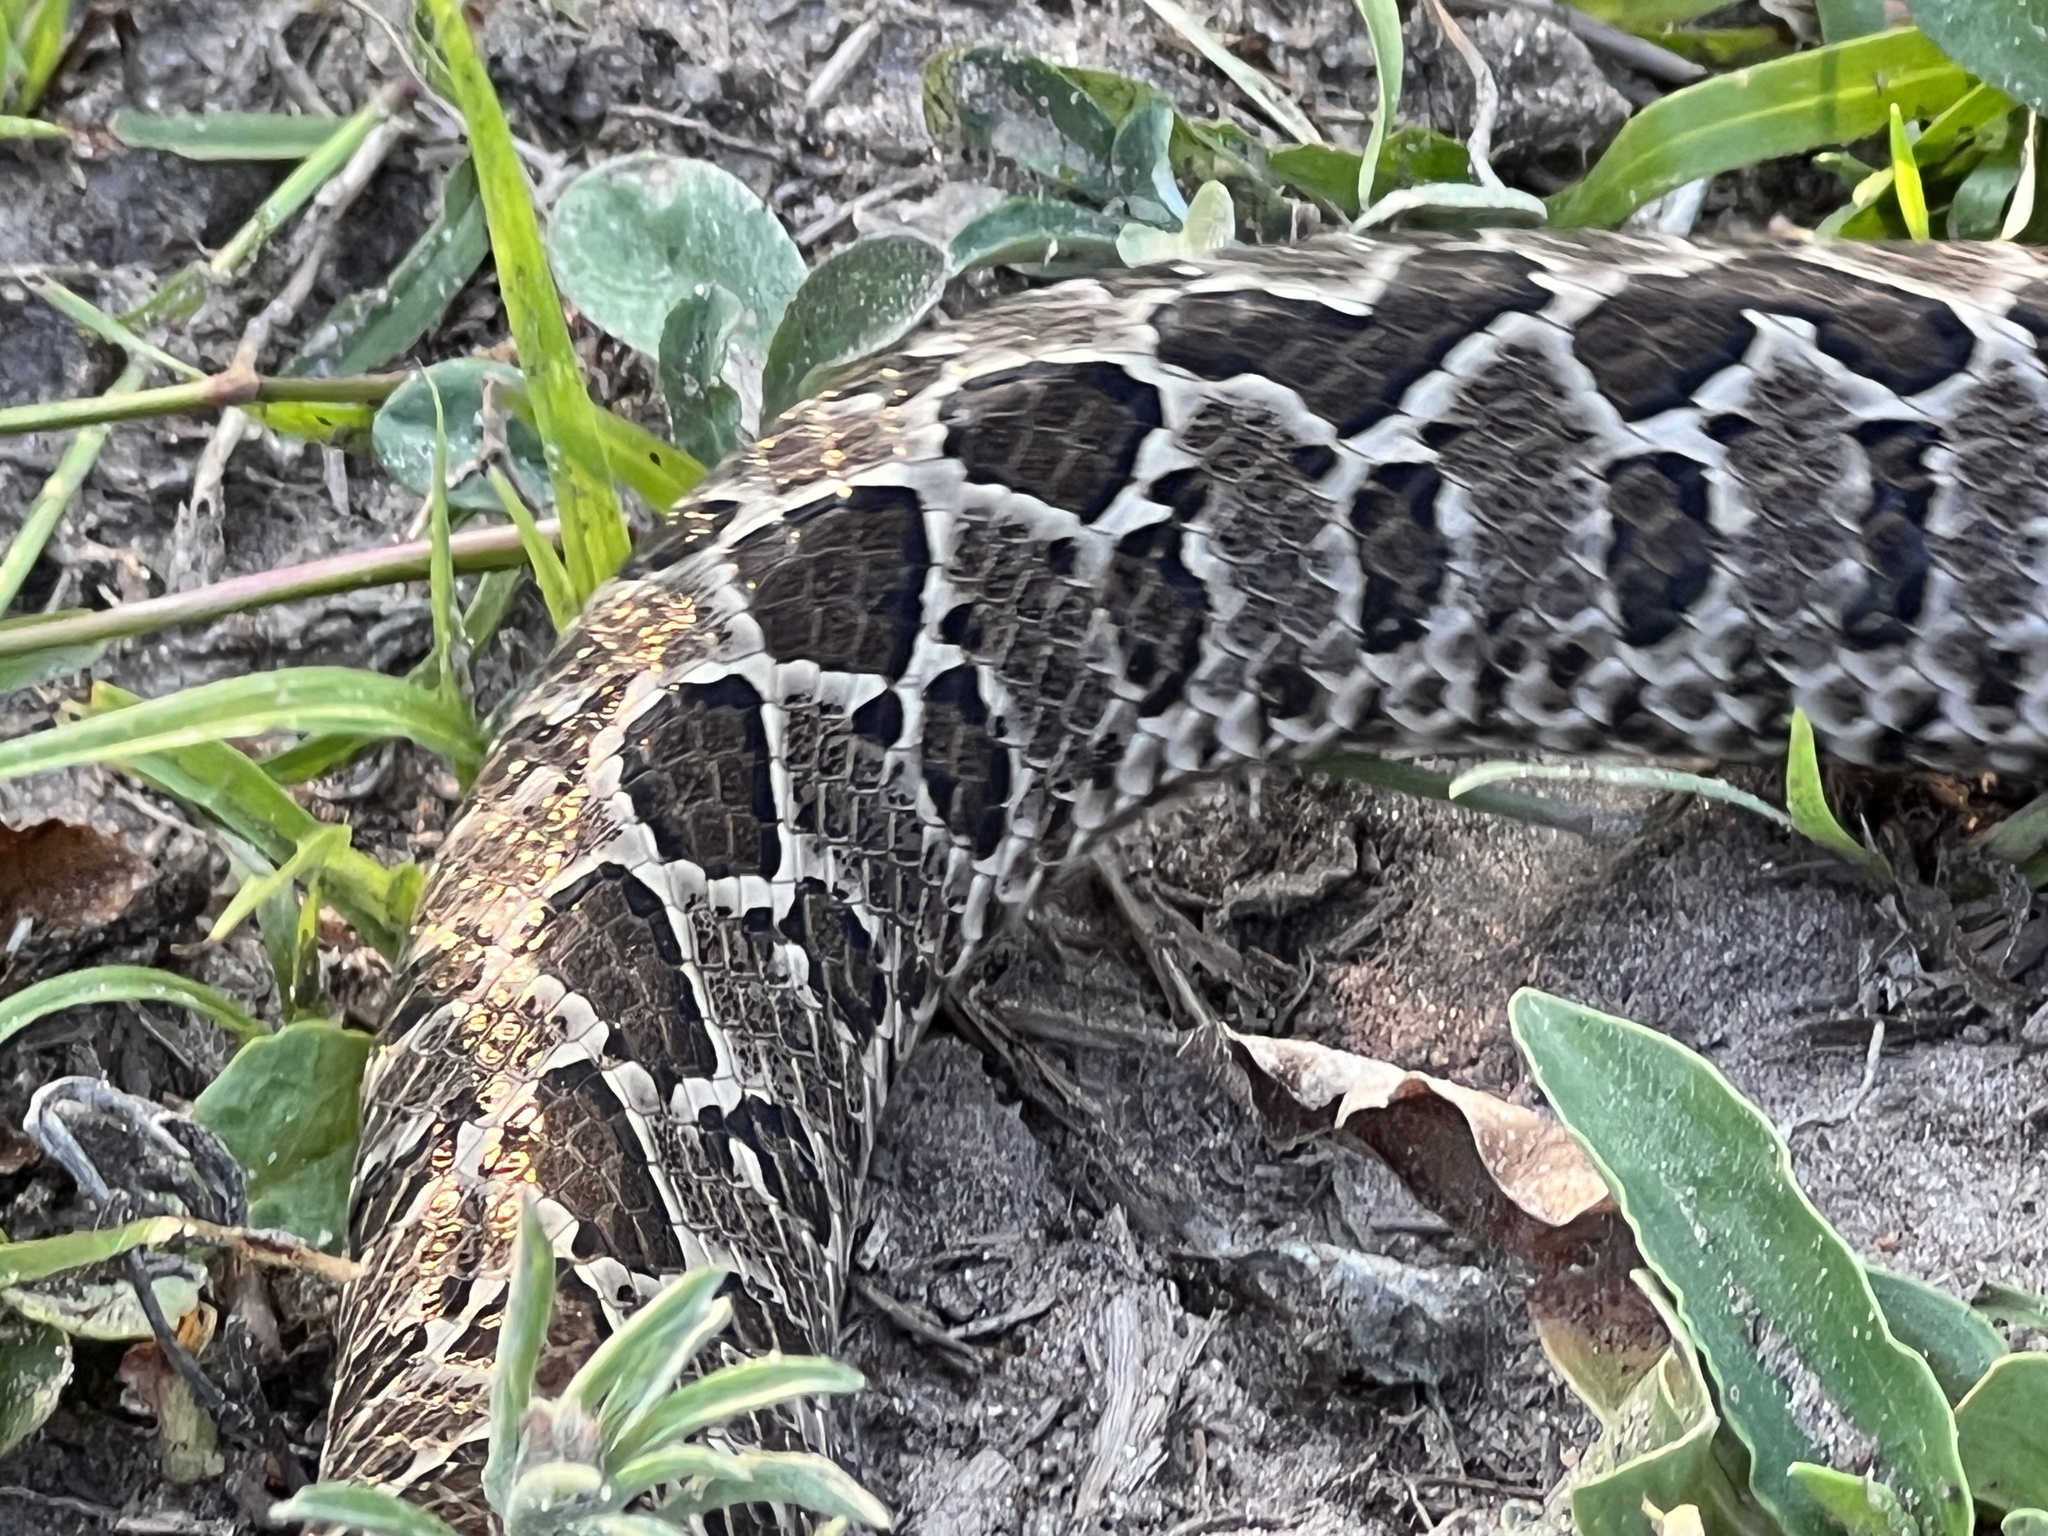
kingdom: Animalia
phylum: Chordata
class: Squamata
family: Colubridae
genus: Xenodon
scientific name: Xenodon dorbignyi
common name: South american hognose snake
